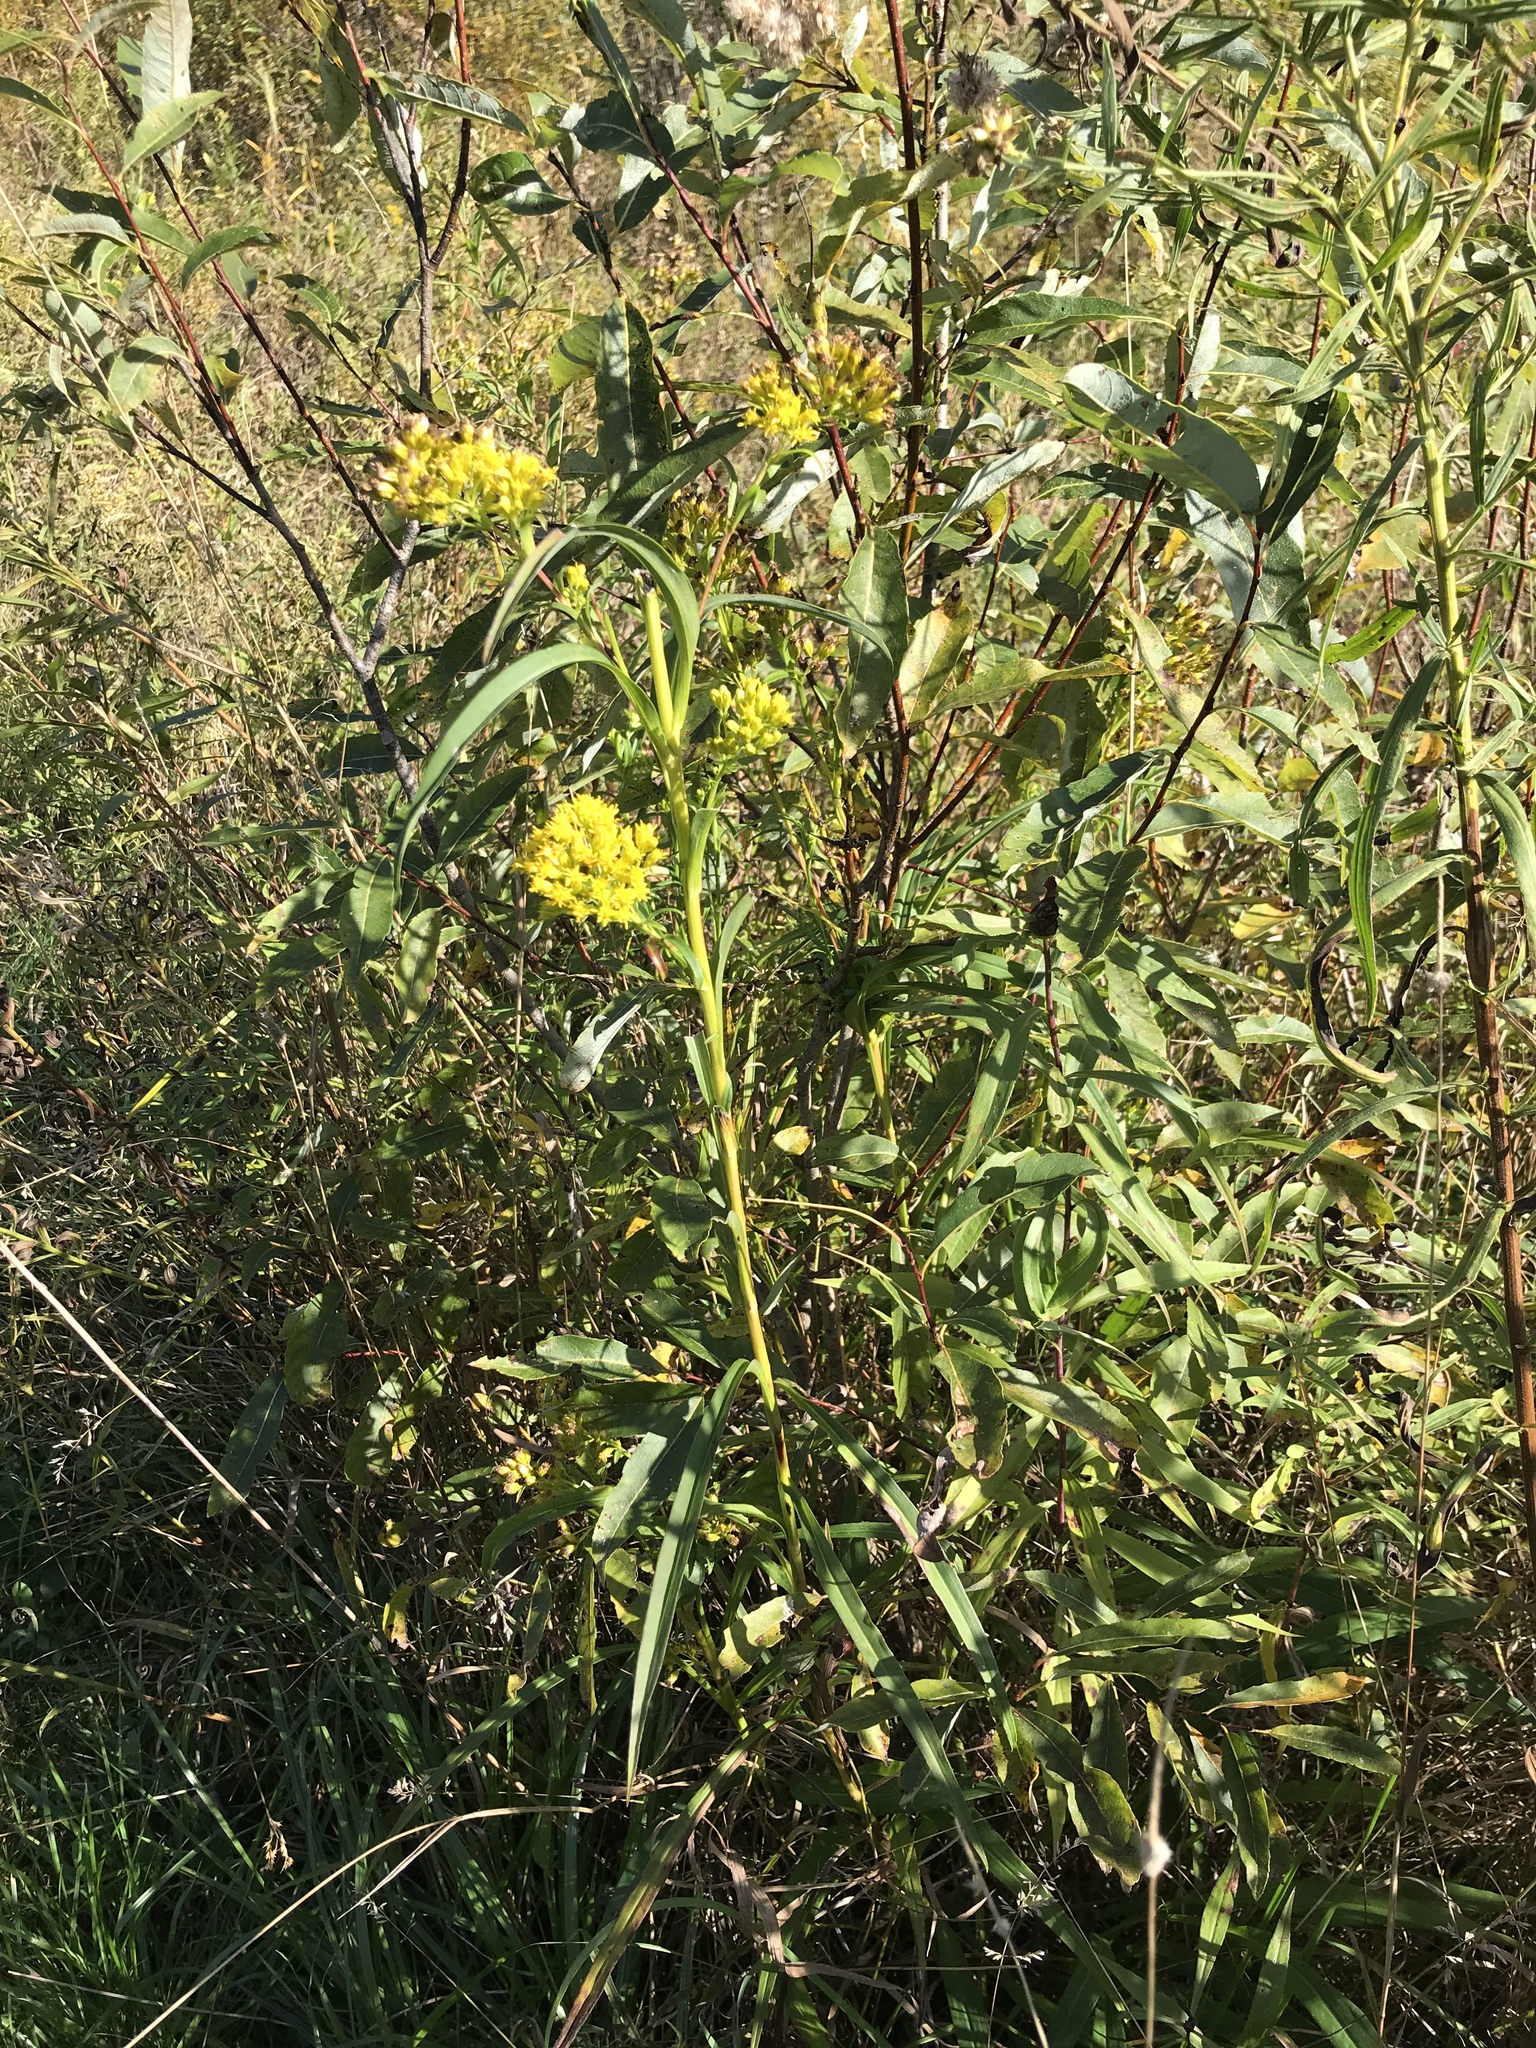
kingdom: Plantae
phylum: Tracheophyta
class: Magnoliopsida
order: Asterales
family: Asteraceae
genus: Solidago
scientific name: Solidago riddellii
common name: Riddell's goldenrod
